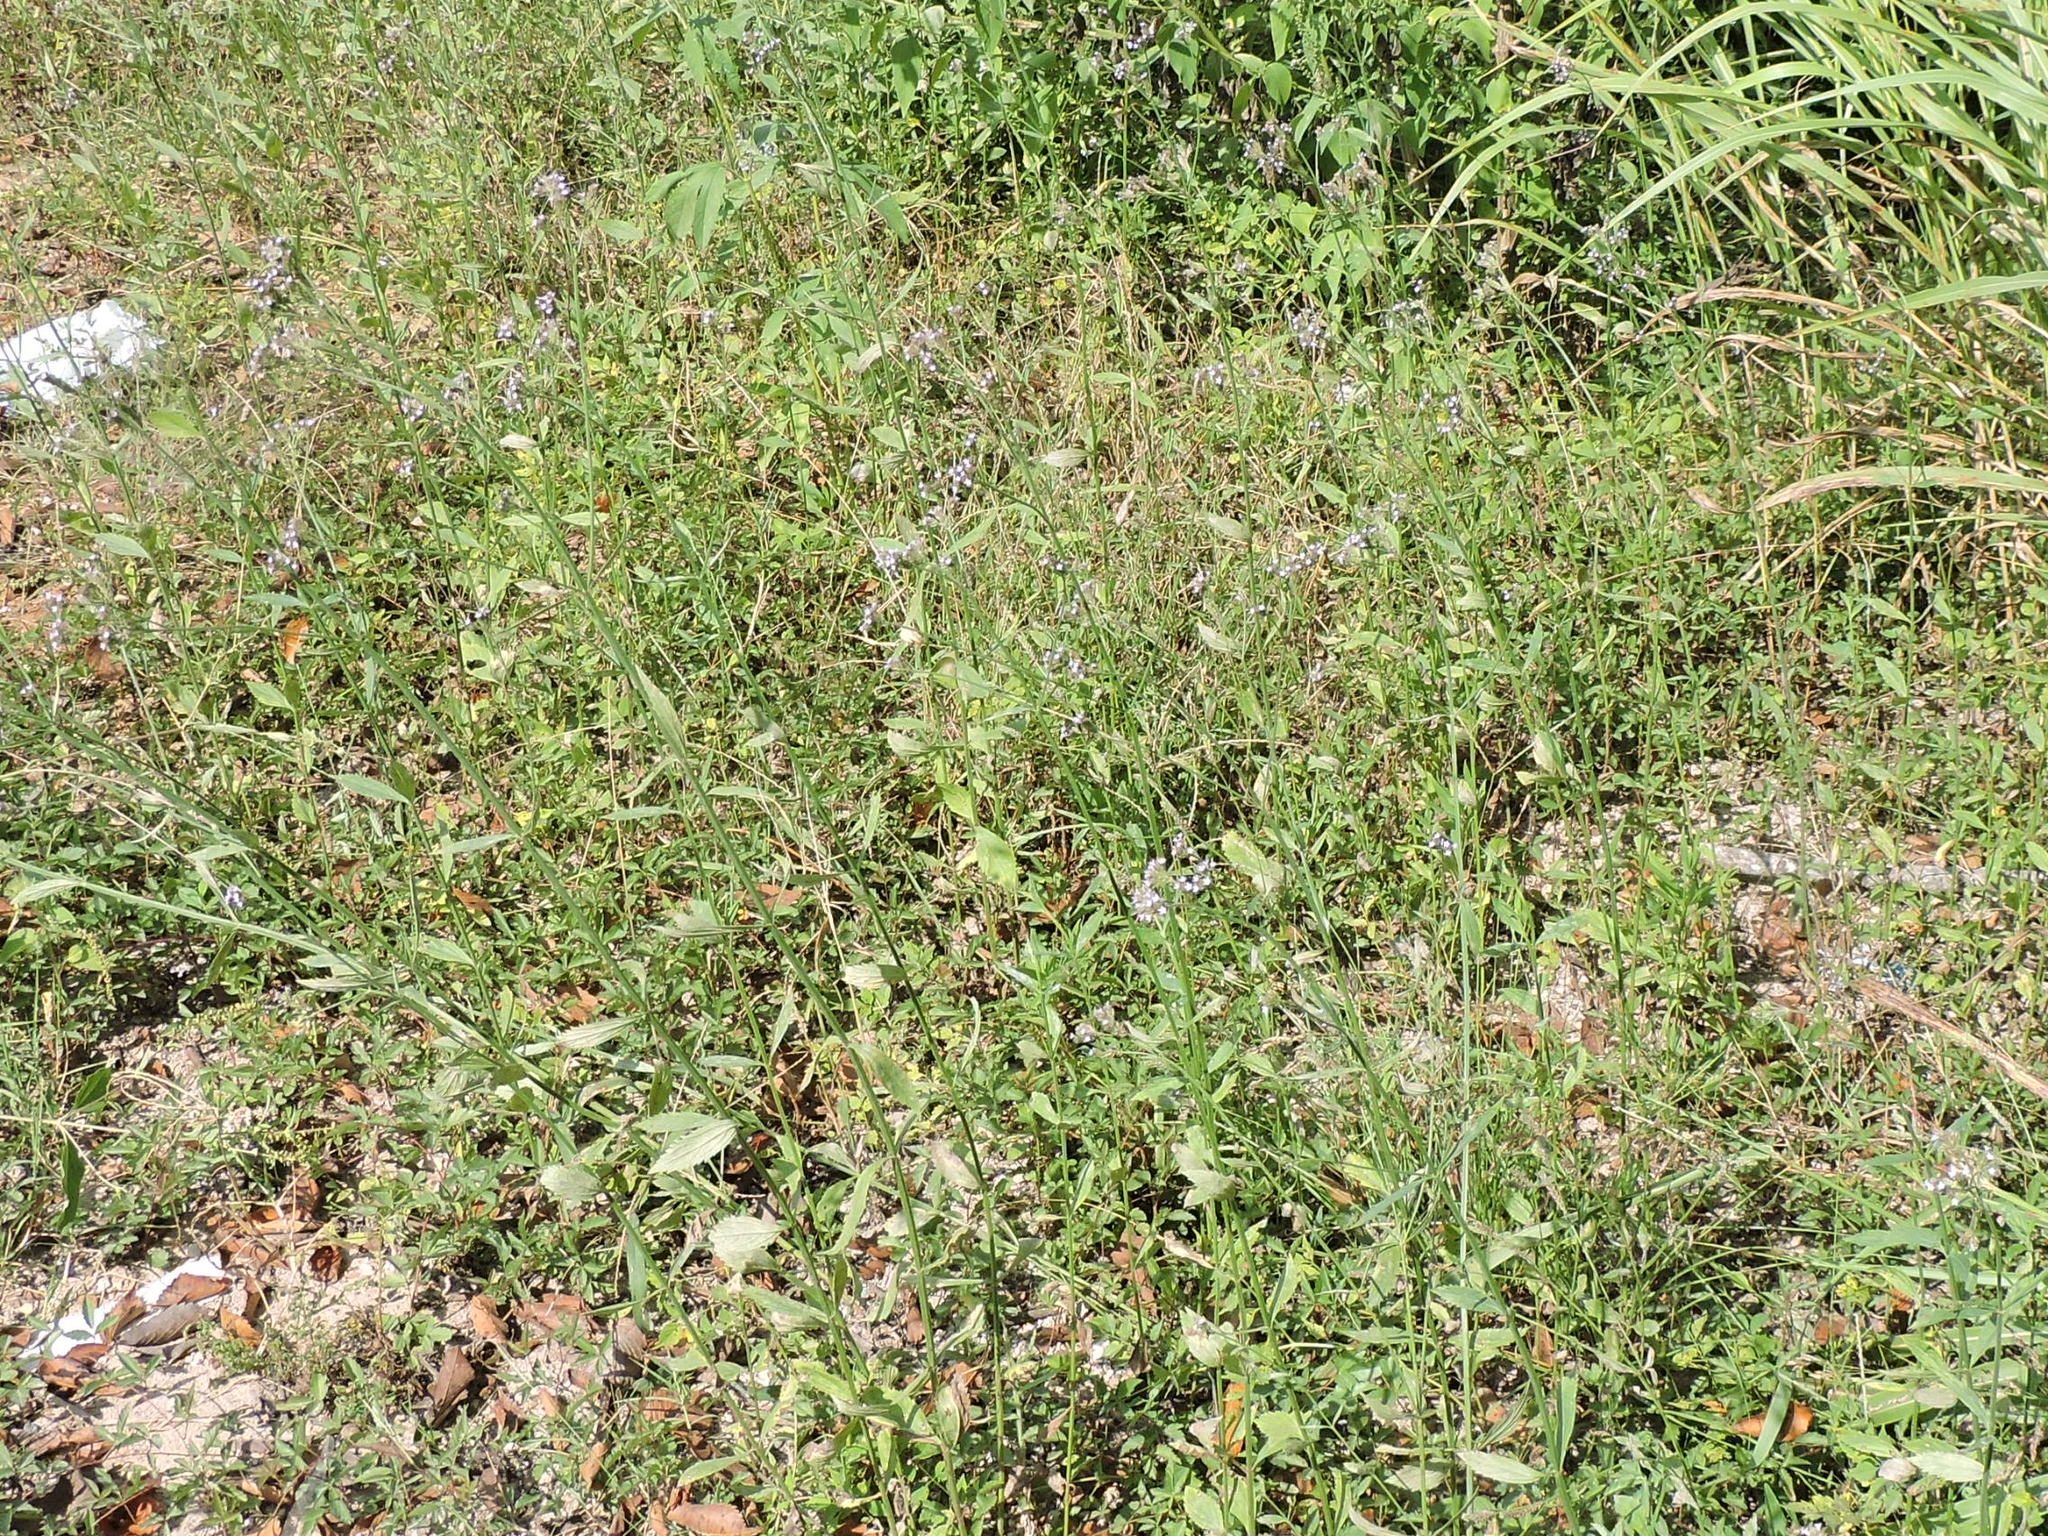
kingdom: Plantae
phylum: Tracheophyta
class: Magnoliopsida
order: Lamiales
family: Verbenaceae
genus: Verbena
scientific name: Verbena brasiliensis
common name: Brazilian vervain
